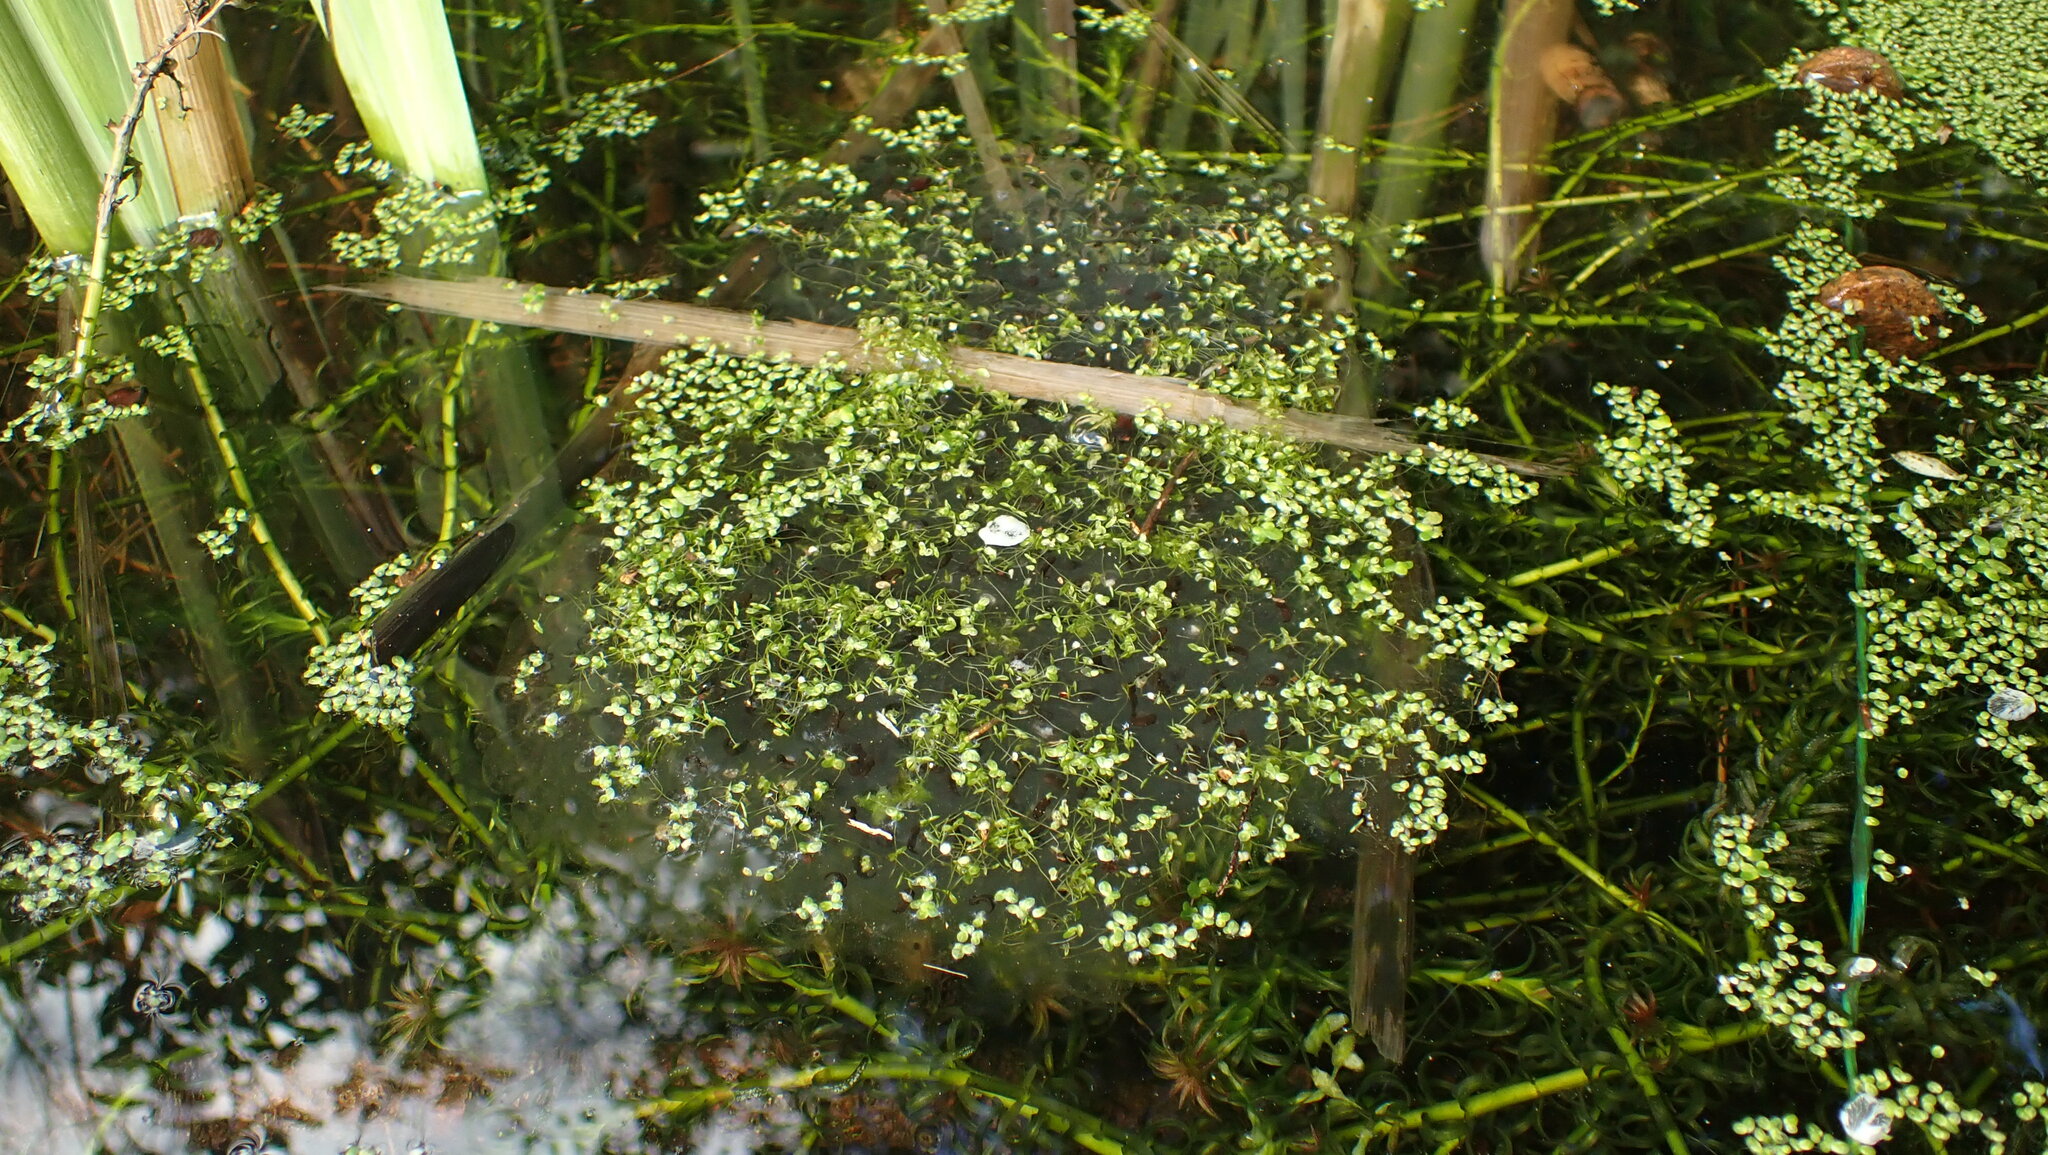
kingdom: Animalia
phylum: Chordata
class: Amphibia
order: Anura
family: Ranidae
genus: Rana
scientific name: Rana temporaria
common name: Common frog
